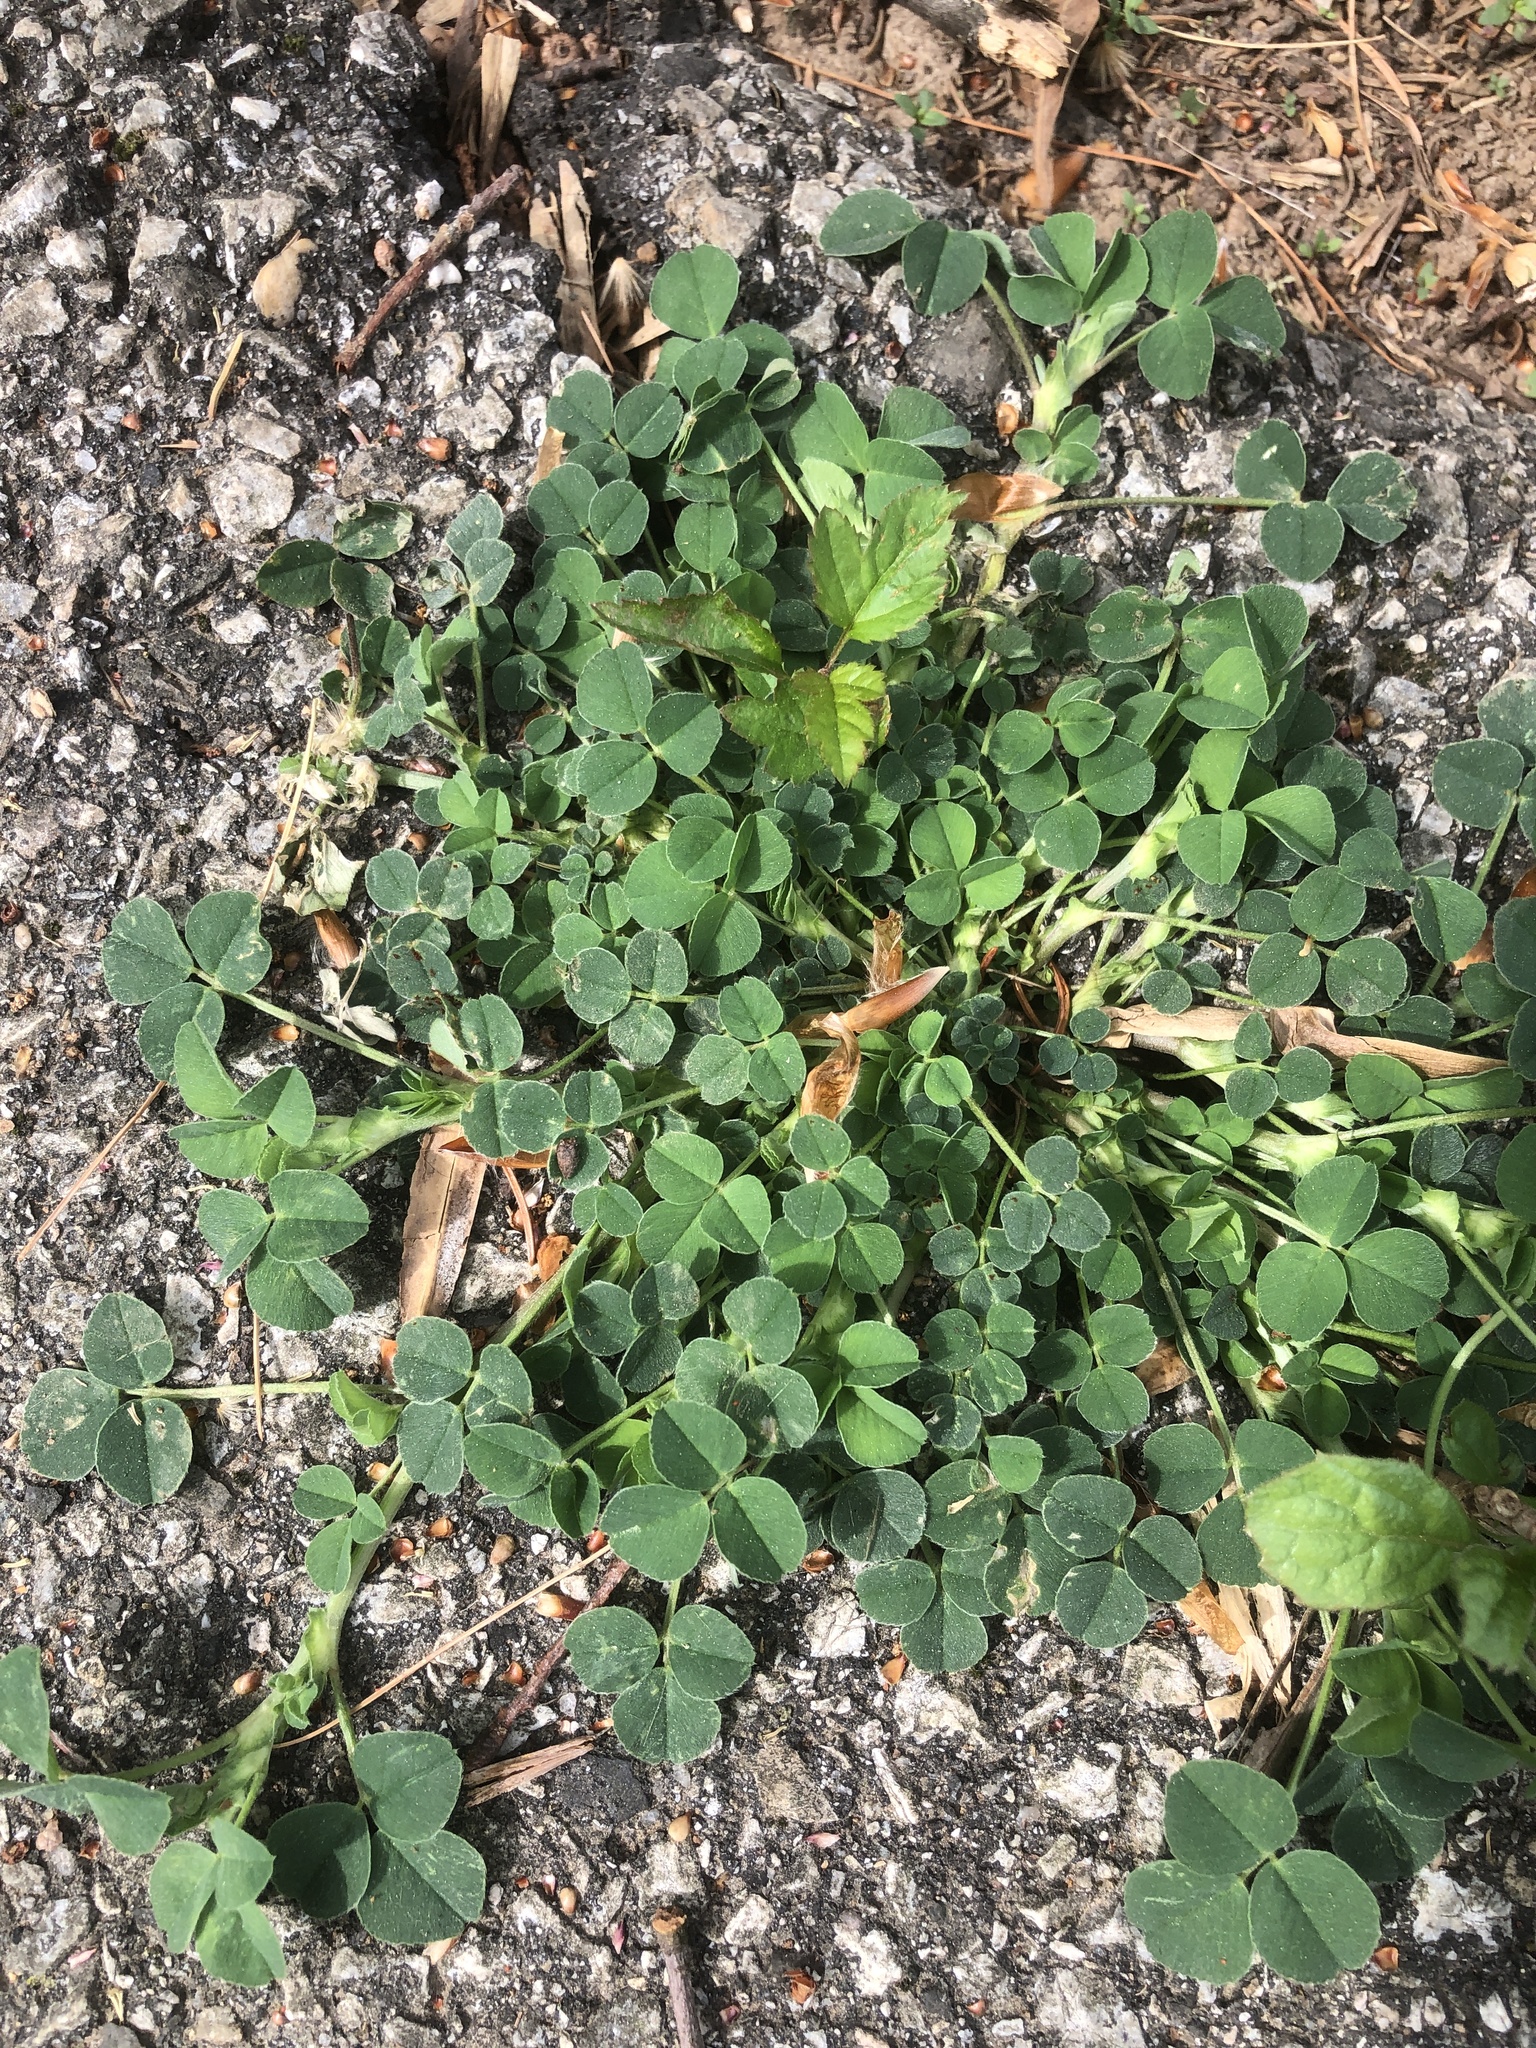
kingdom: Plantae
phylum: Tracheophyta
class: Magnoliopsida
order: Fabales
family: Fabaceae
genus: Medicago
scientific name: Medicago lupulina
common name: Black medick
